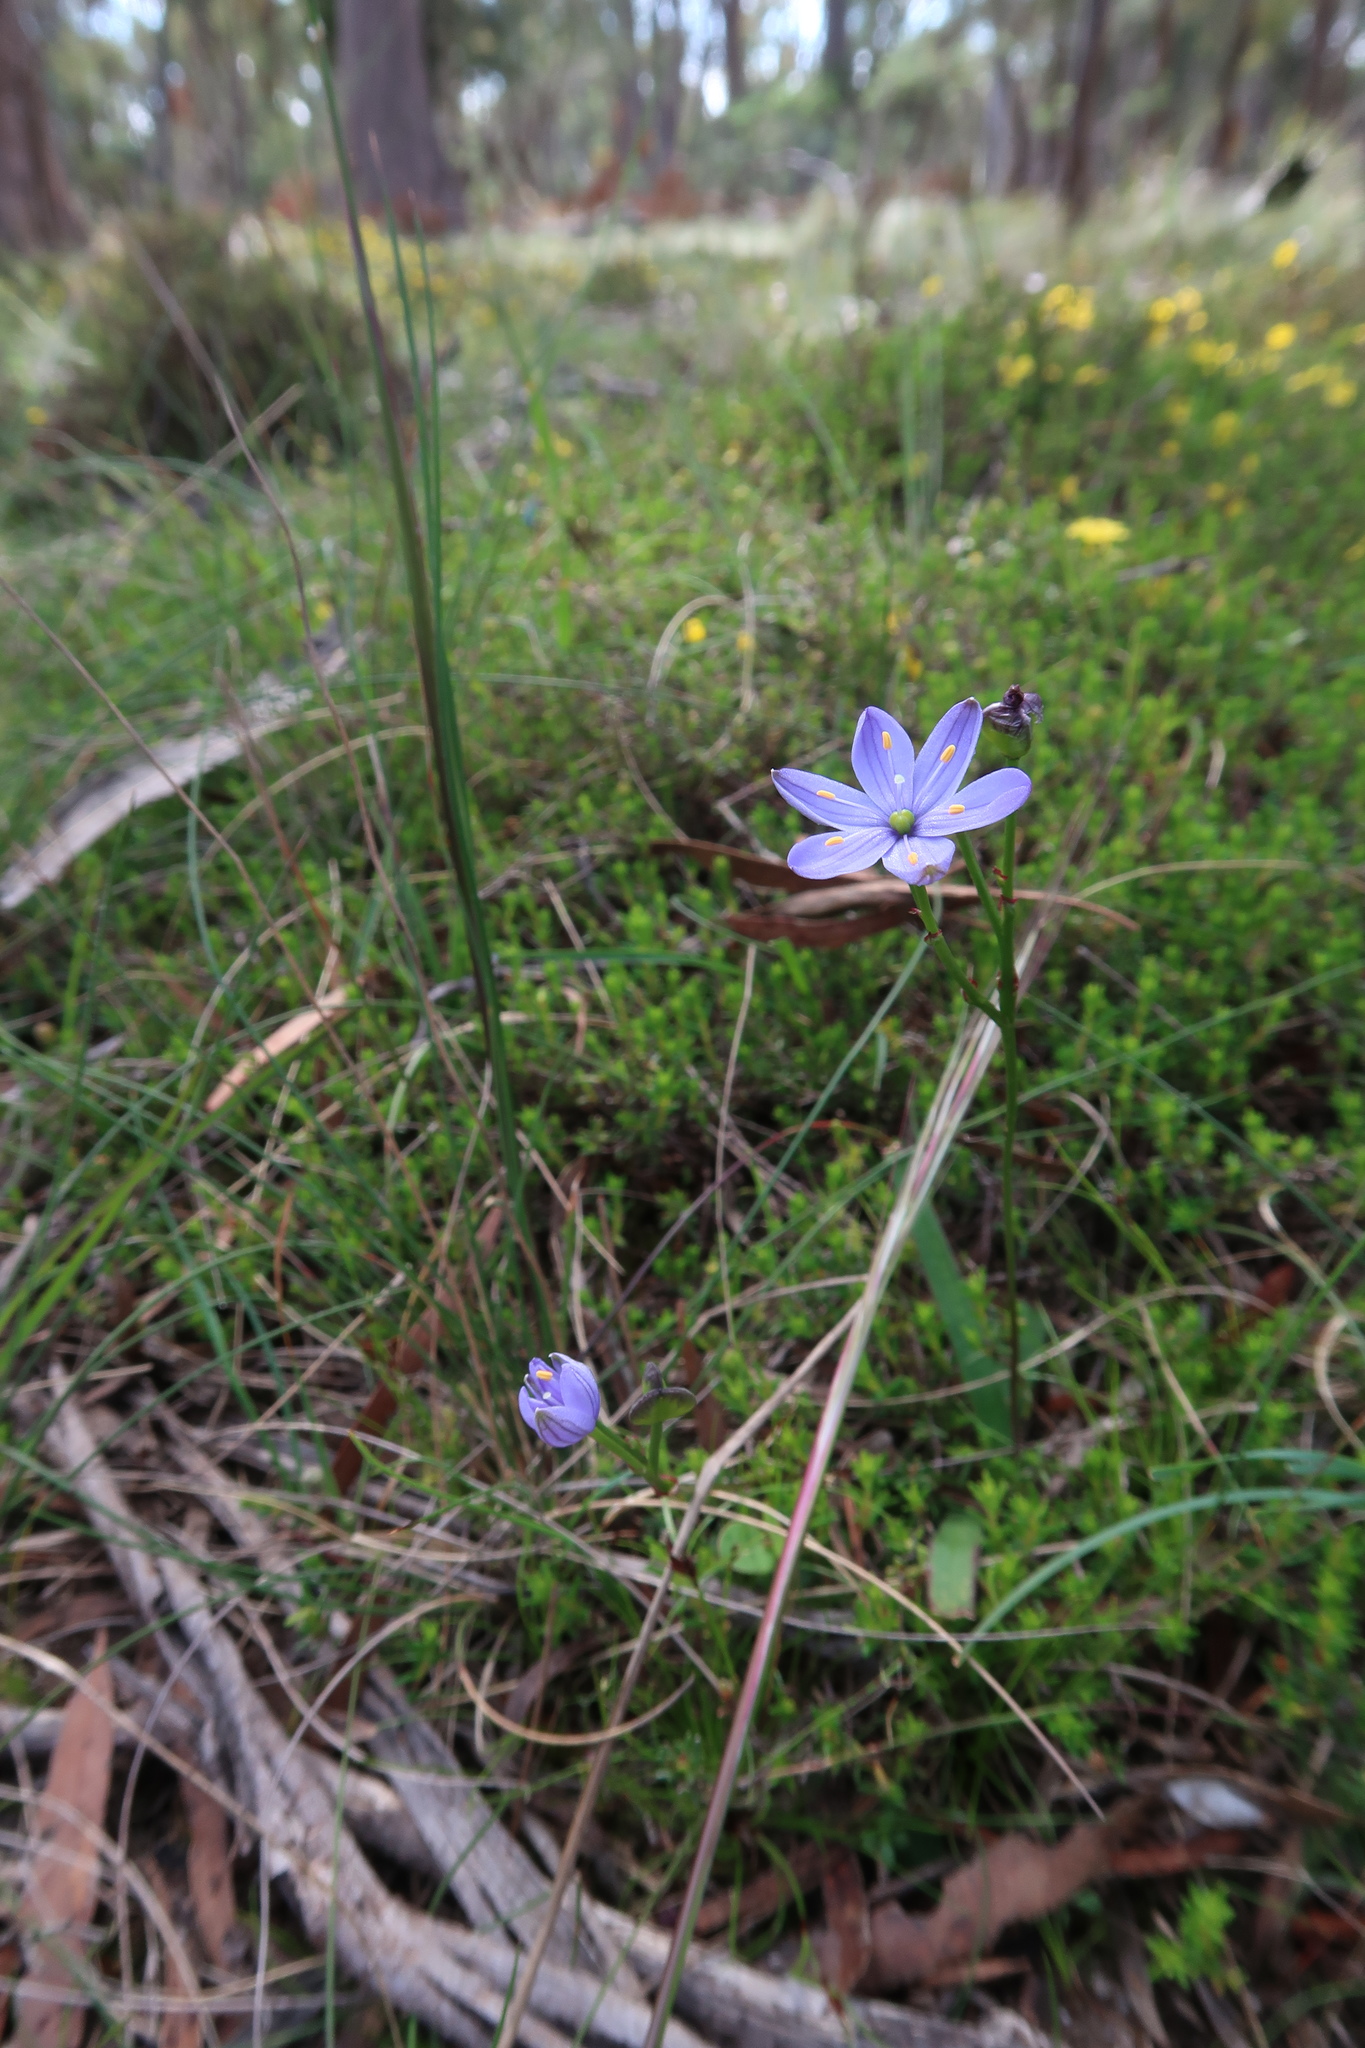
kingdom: Plantae
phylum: Tracheophyta
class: Liliopsida
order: Asparagales
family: Asphodelaceae
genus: Chamaescilla
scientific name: Chamaescilla corymbosa
